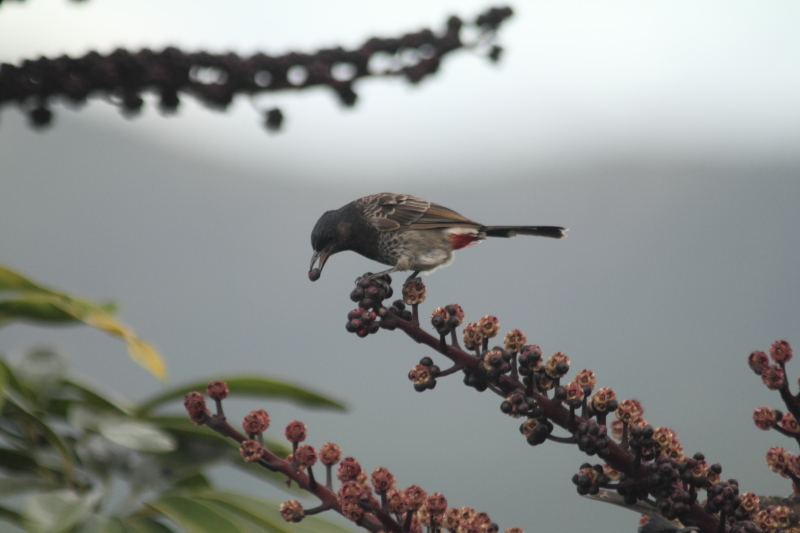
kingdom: Animalia
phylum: Chordata
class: Aves
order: Passeriformes
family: Pycnonotidae
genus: Pycnonotus
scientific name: Pycnonotus cafer
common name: Red-vented bulbul
